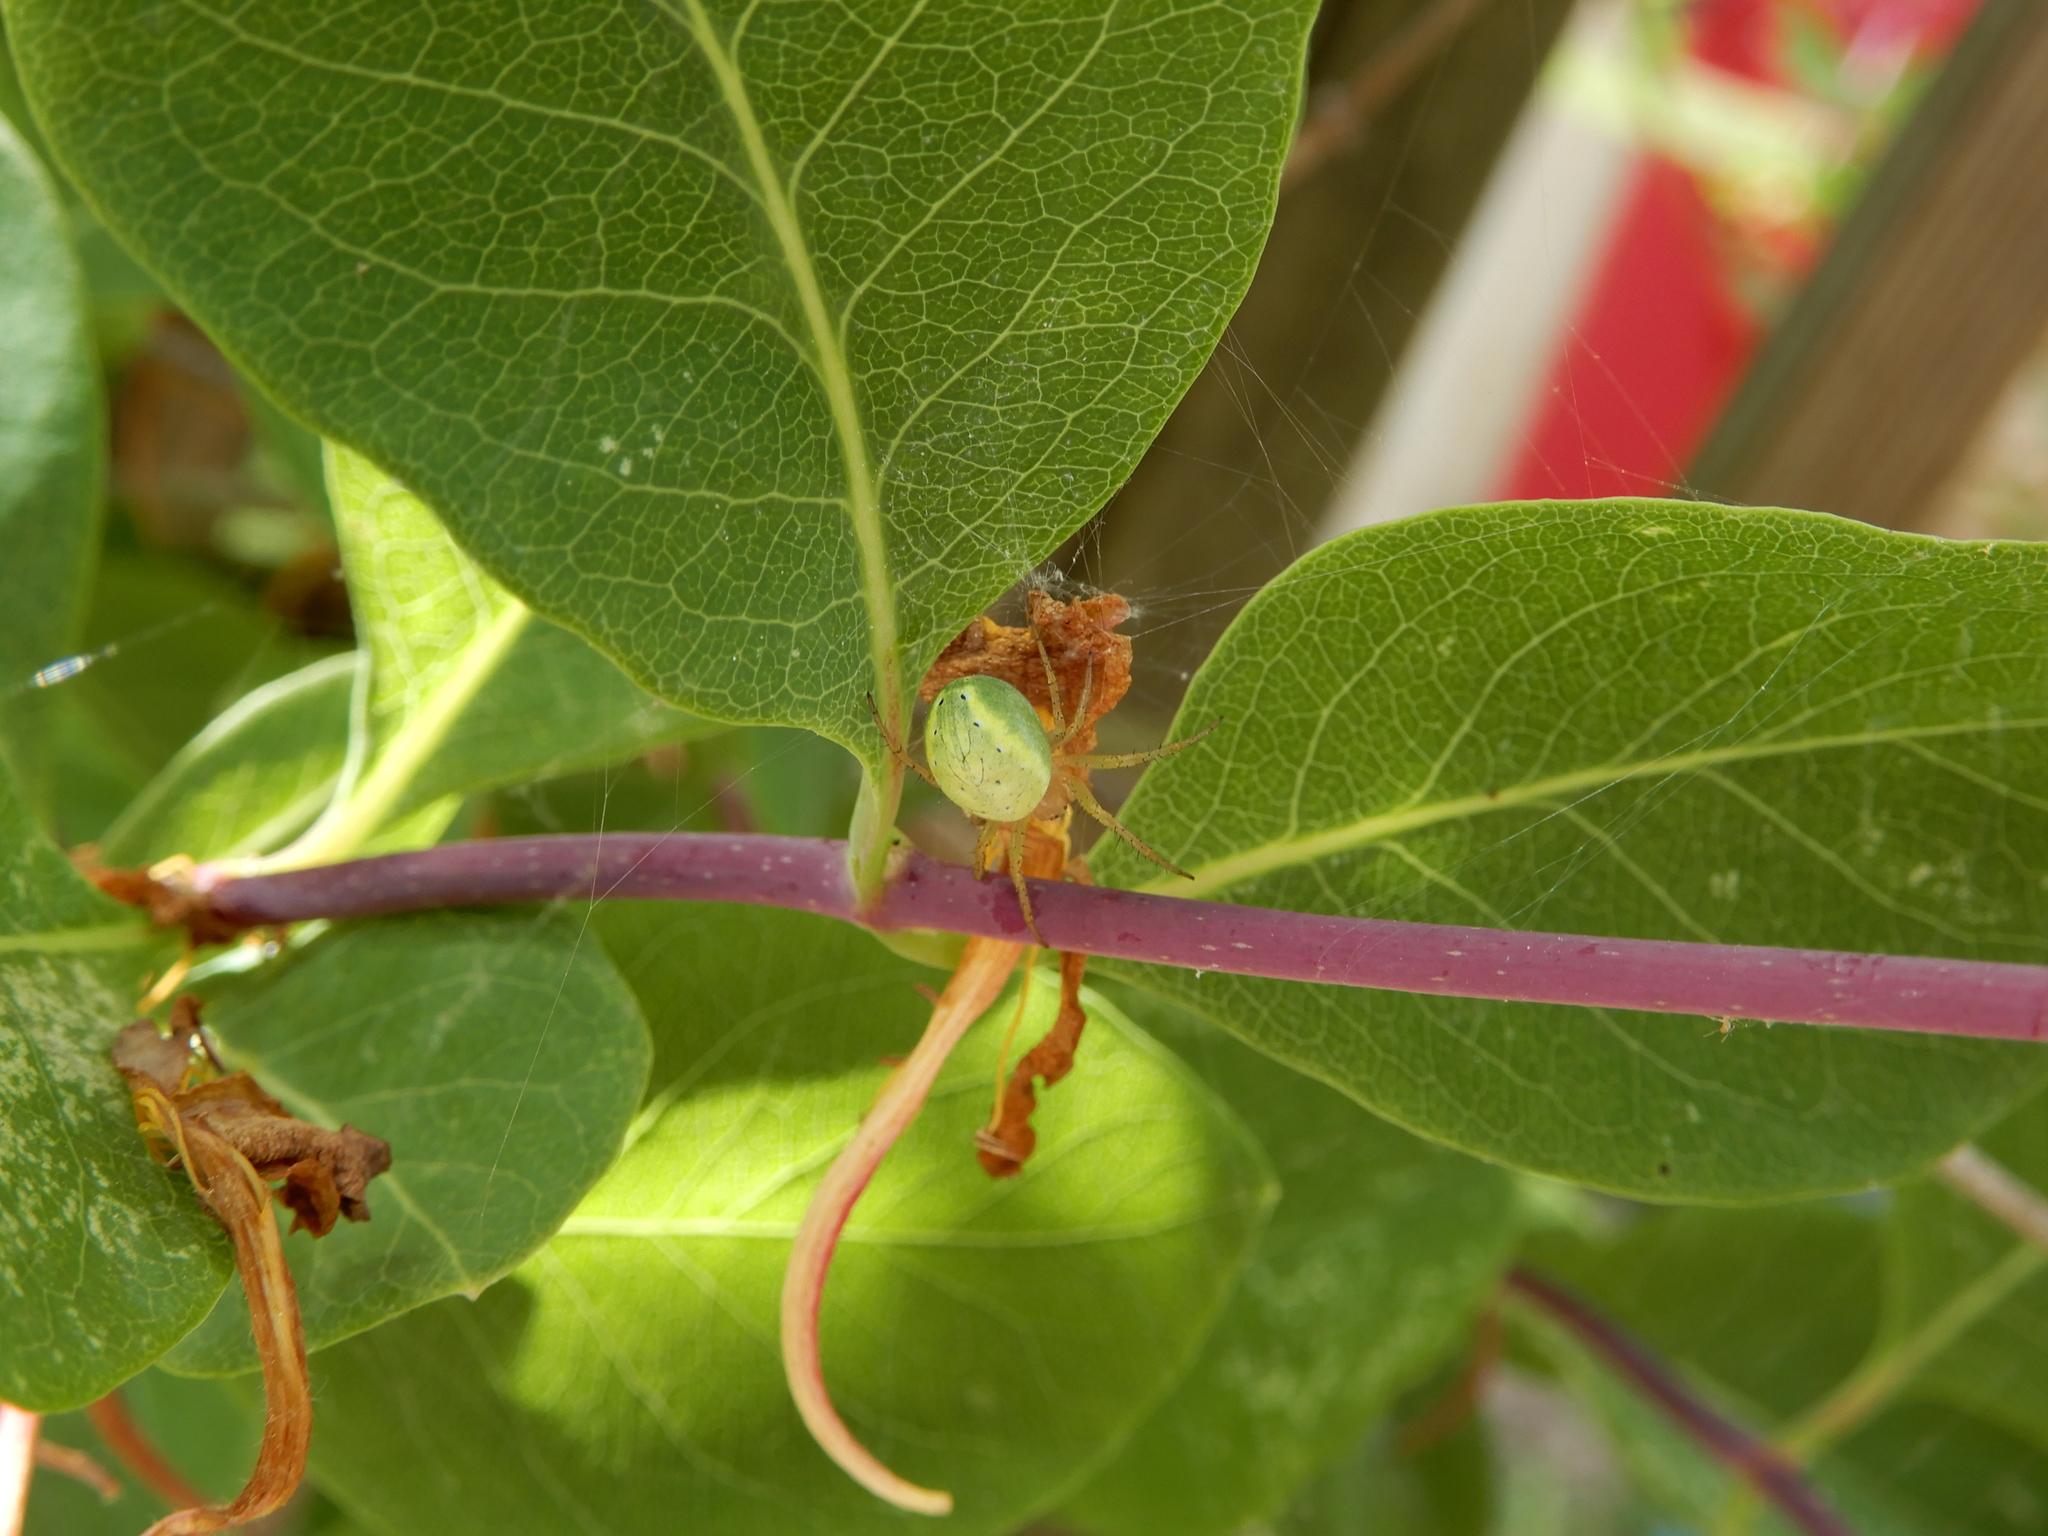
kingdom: Animalia
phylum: Arthropoda
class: Arachnida
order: Araneae
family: Araneidae
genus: Araniella
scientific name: Araniella
